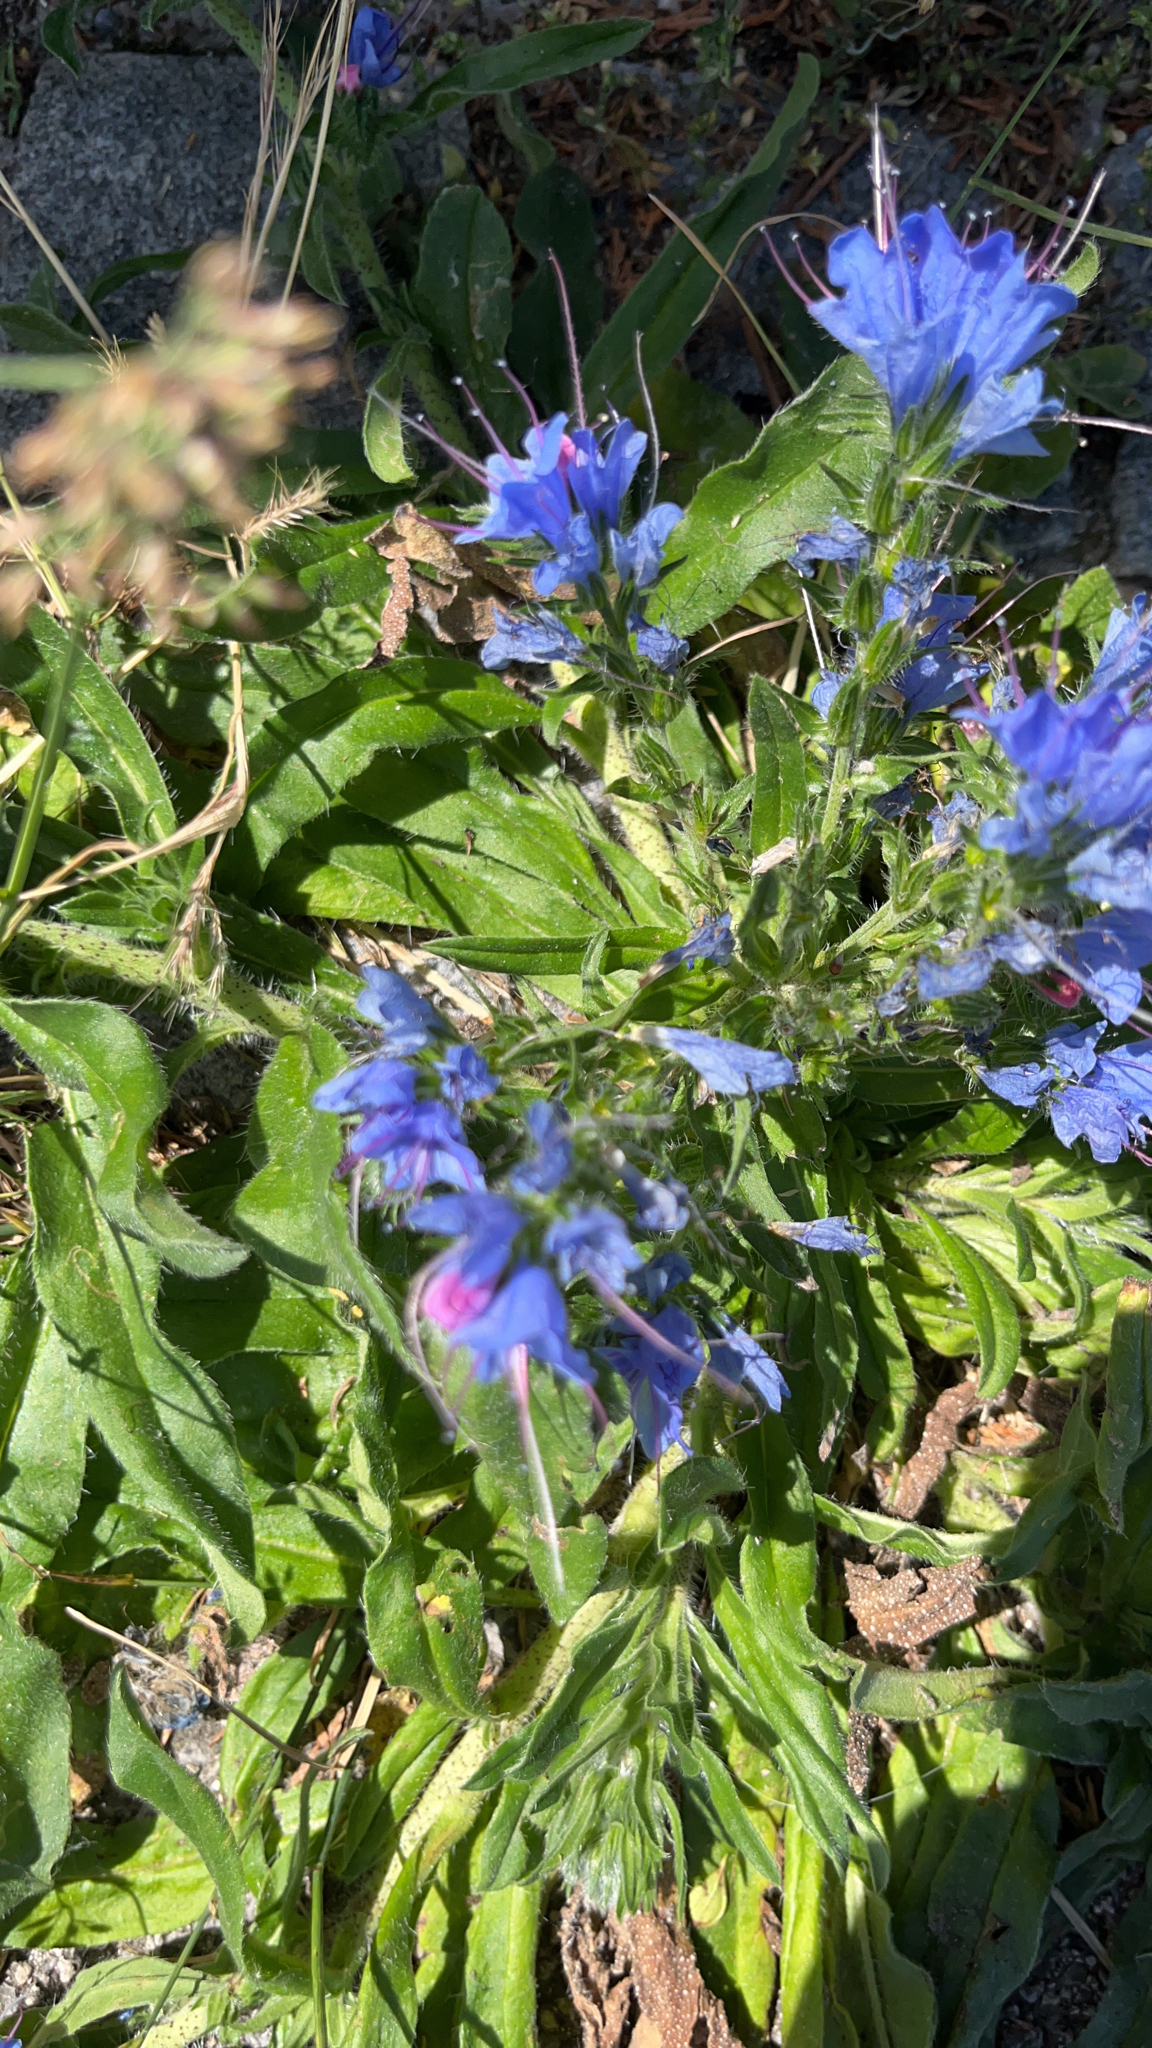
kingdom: Plantae
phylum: Tracheophyta
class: Magnoliopsida
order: Boraginales
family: Boraginaceae
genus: Echium
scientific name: Echium vulgare
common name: Common viper's bugloss
